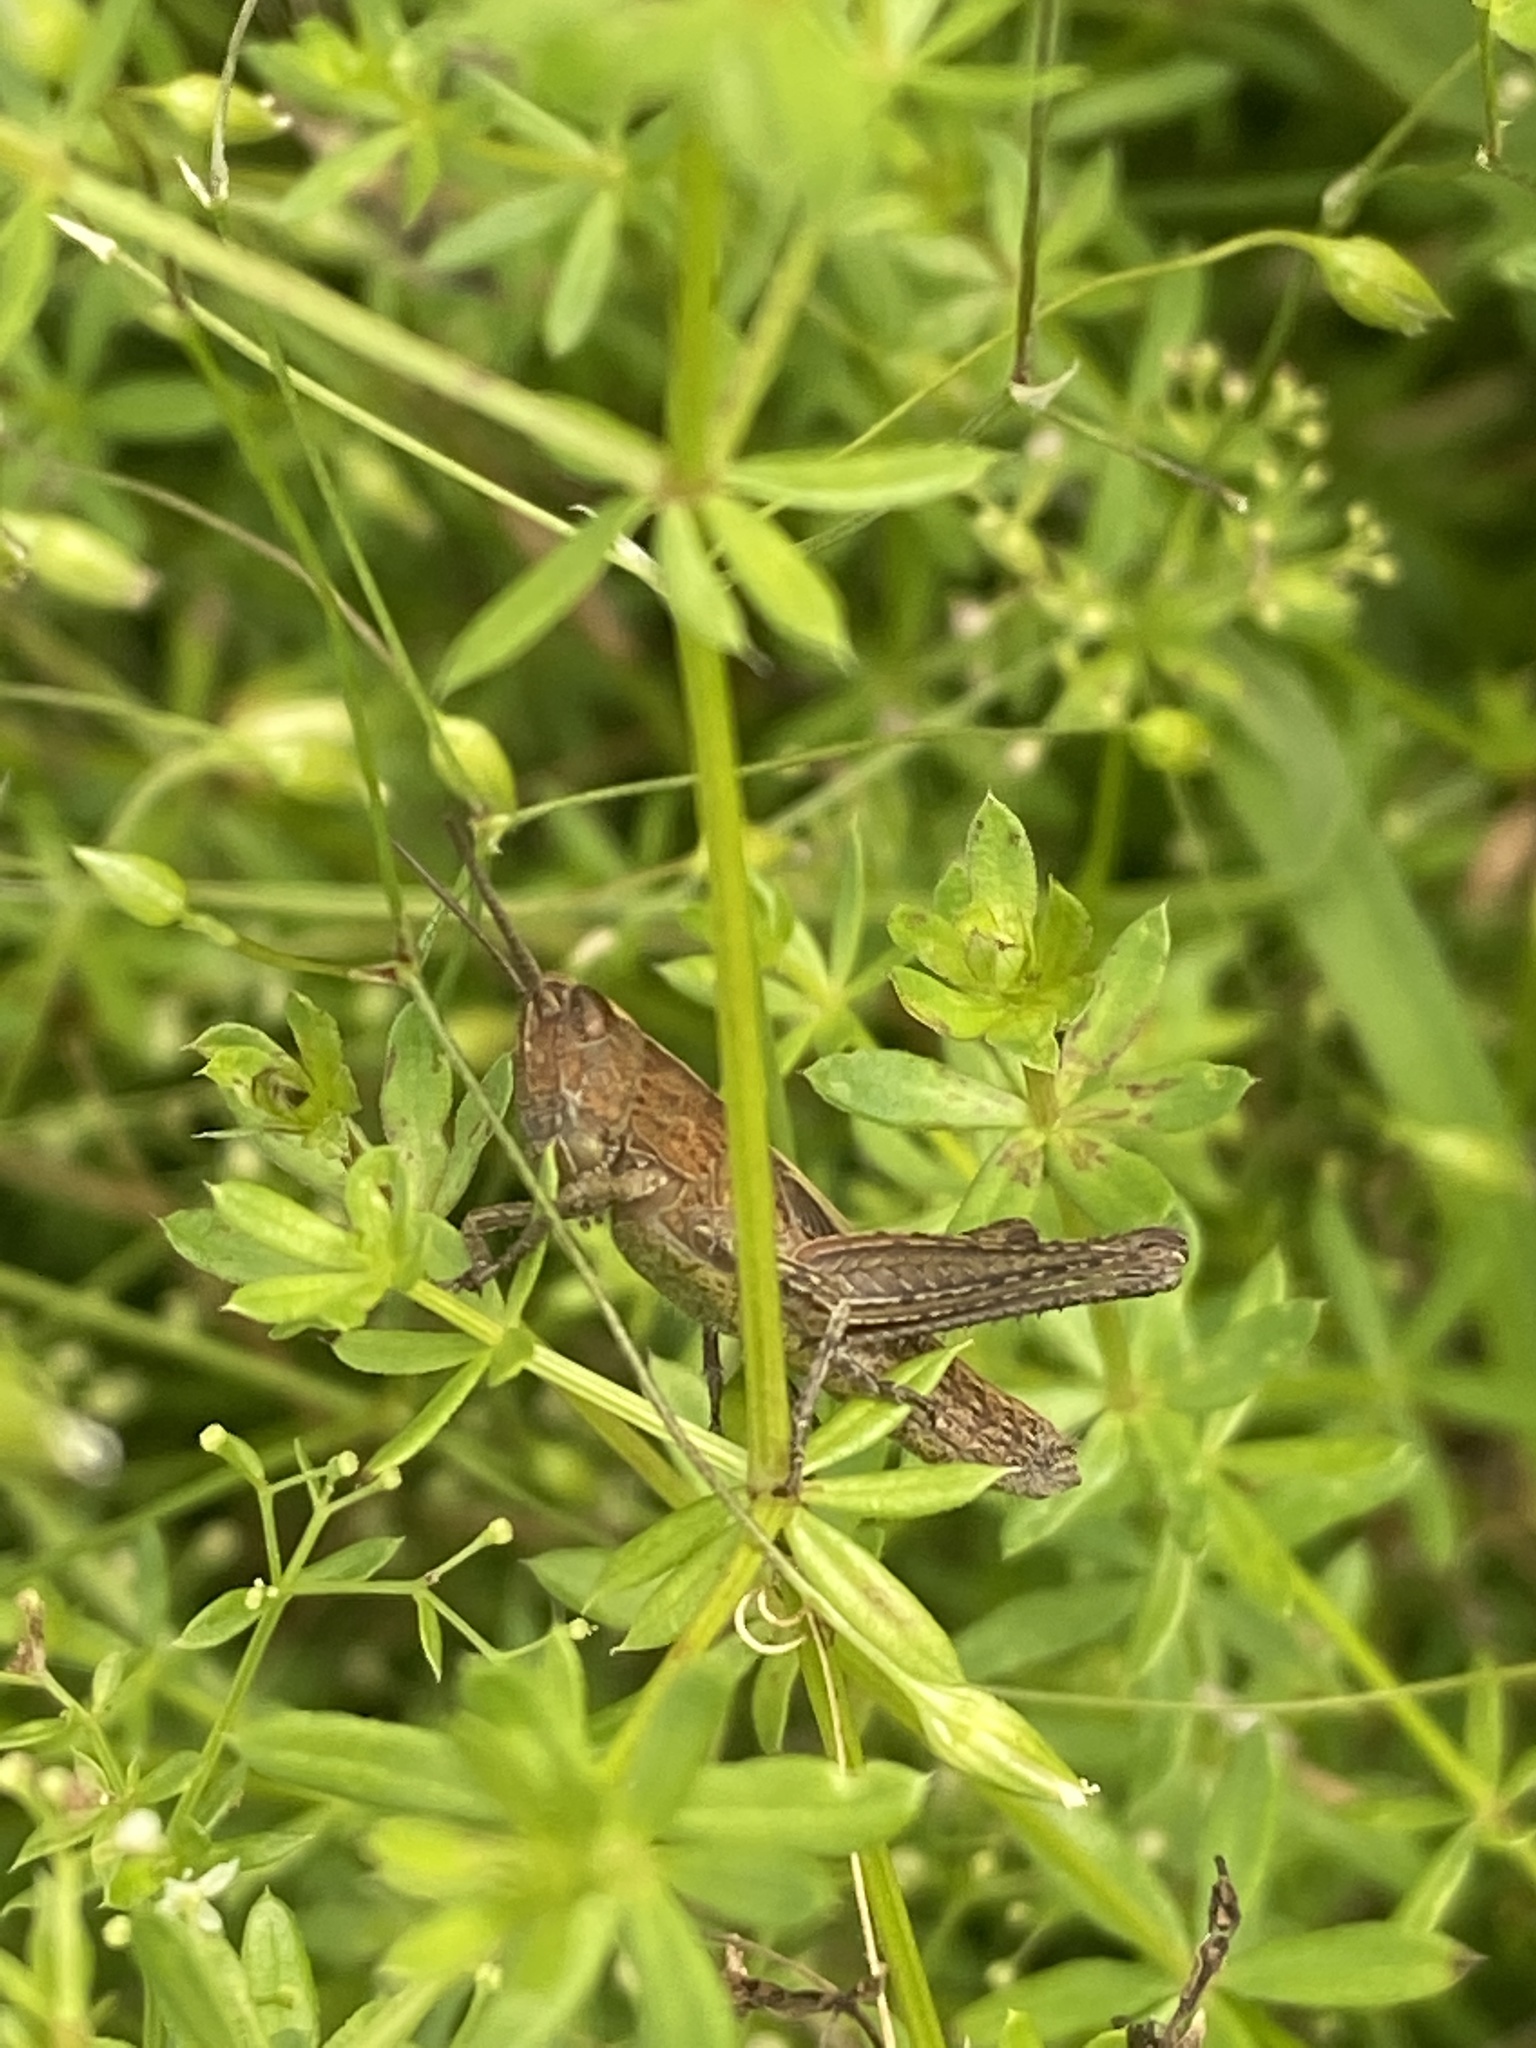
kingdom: Animalia
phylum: Arthropoda
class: Insecta
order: Orthoptera
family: Acrididae
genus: Chorthippus
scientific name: Chorthippus dorsatus
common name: Steppe grasshopper
